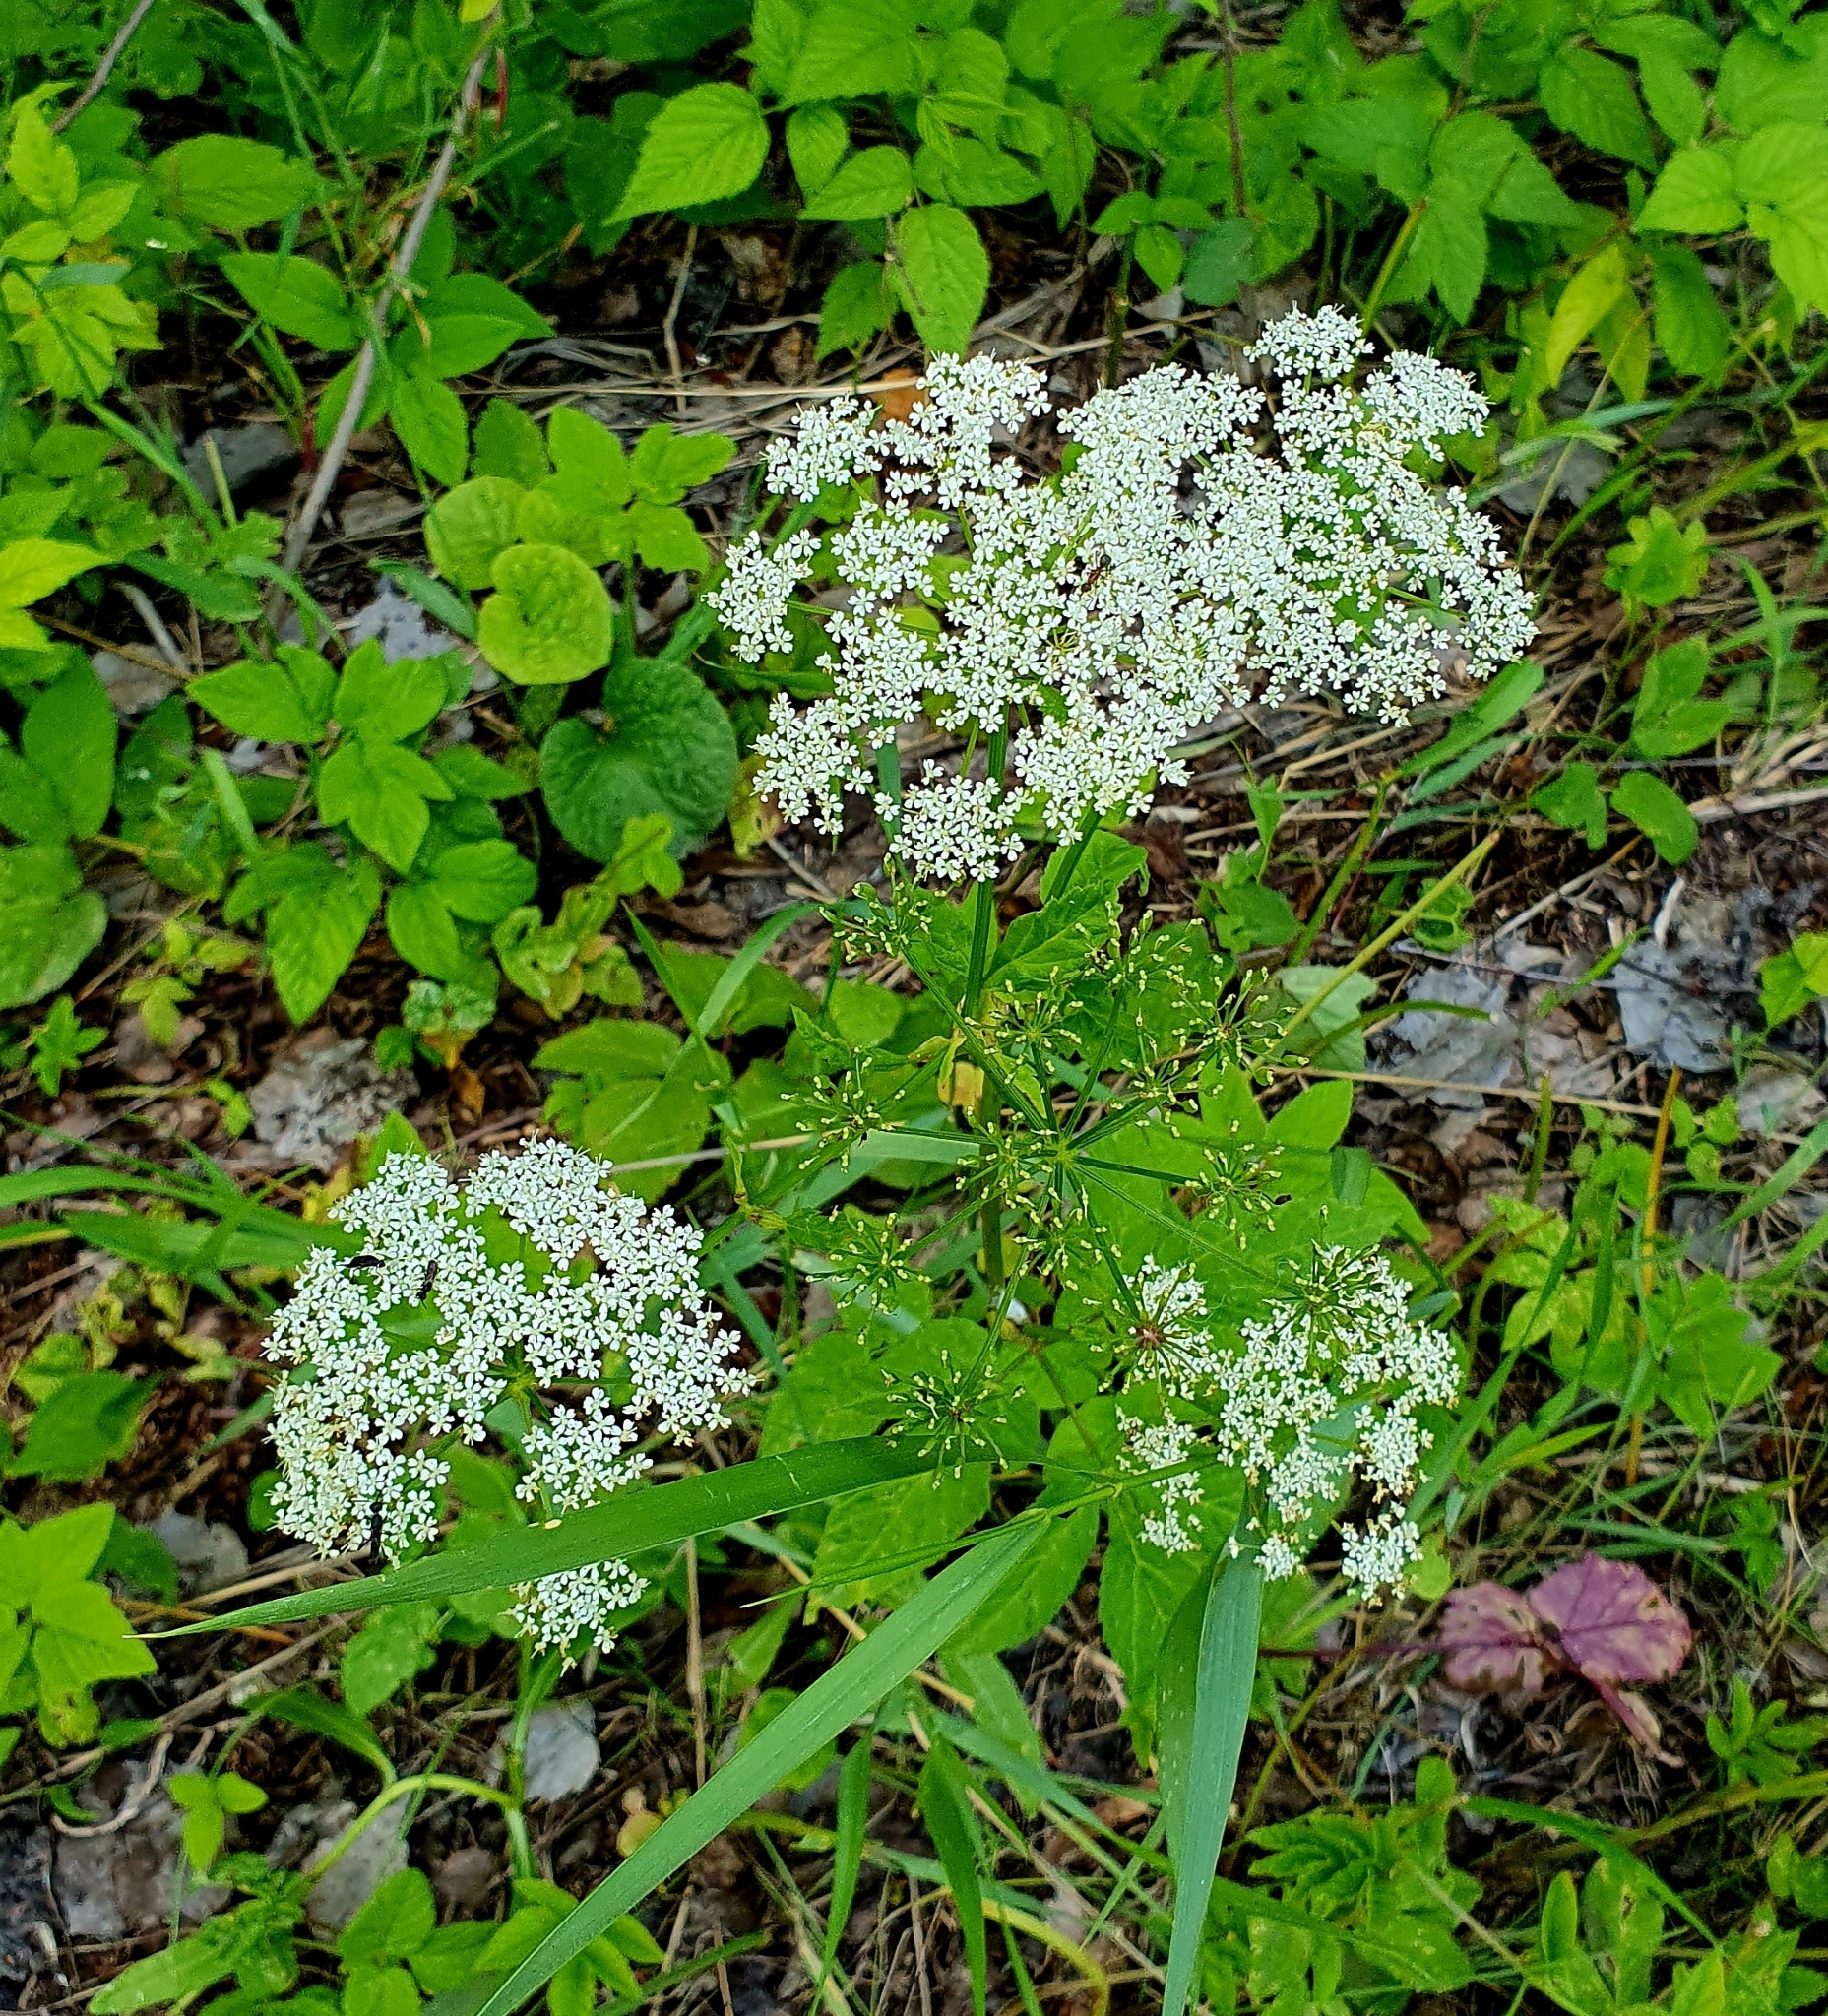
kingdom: Plantae
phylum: Tracheophyta
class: Magnoliopsida
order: Apiales
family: Apiaceae
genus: Aegopodium
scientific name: Aegopodium podagraria
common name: Ground-elder
